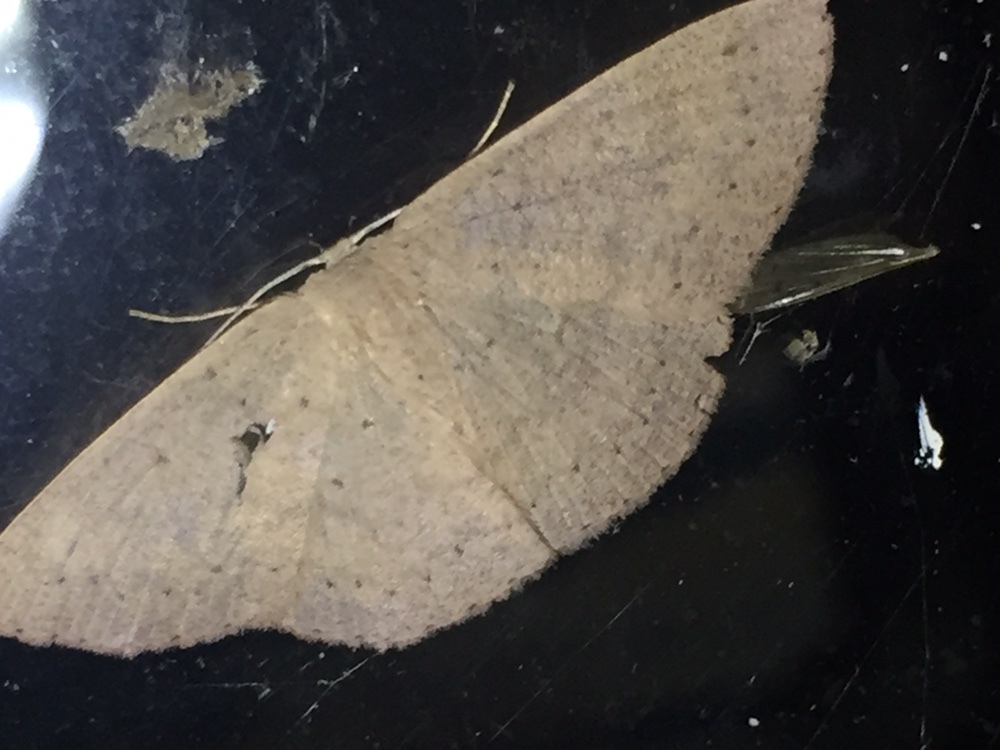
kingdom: Animalia
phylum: Arthropoda
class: Insecta
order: Lepidoptera
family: Geometridae
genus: Cyclophora
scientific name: Cyclophora obstataria
